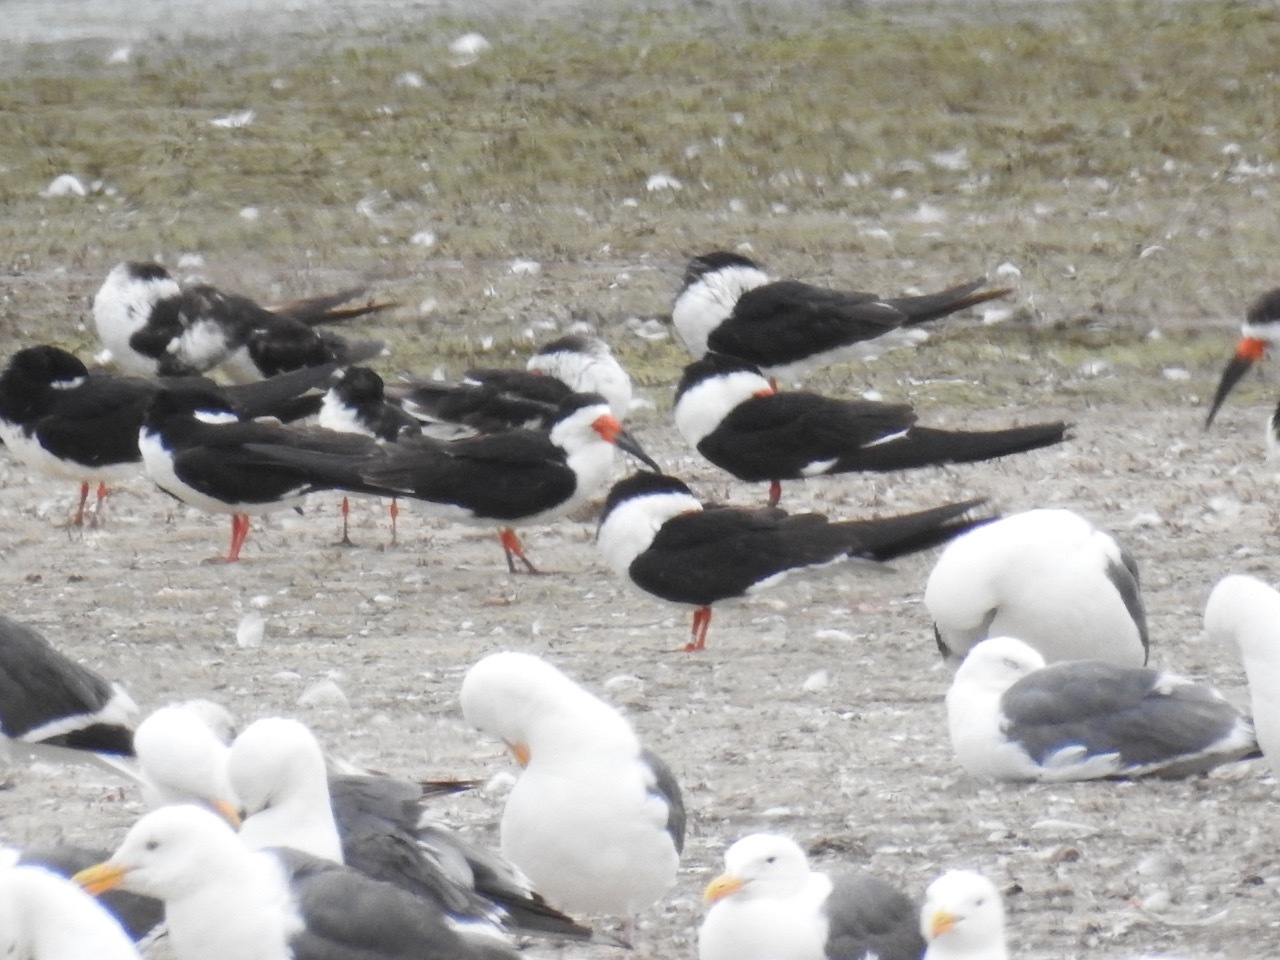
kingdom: Animalia
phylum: Chordata
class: Aves
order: Charadriiformes
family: Laridae
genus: Rynchops
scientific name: Rynchops niger
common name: Black skimmer
